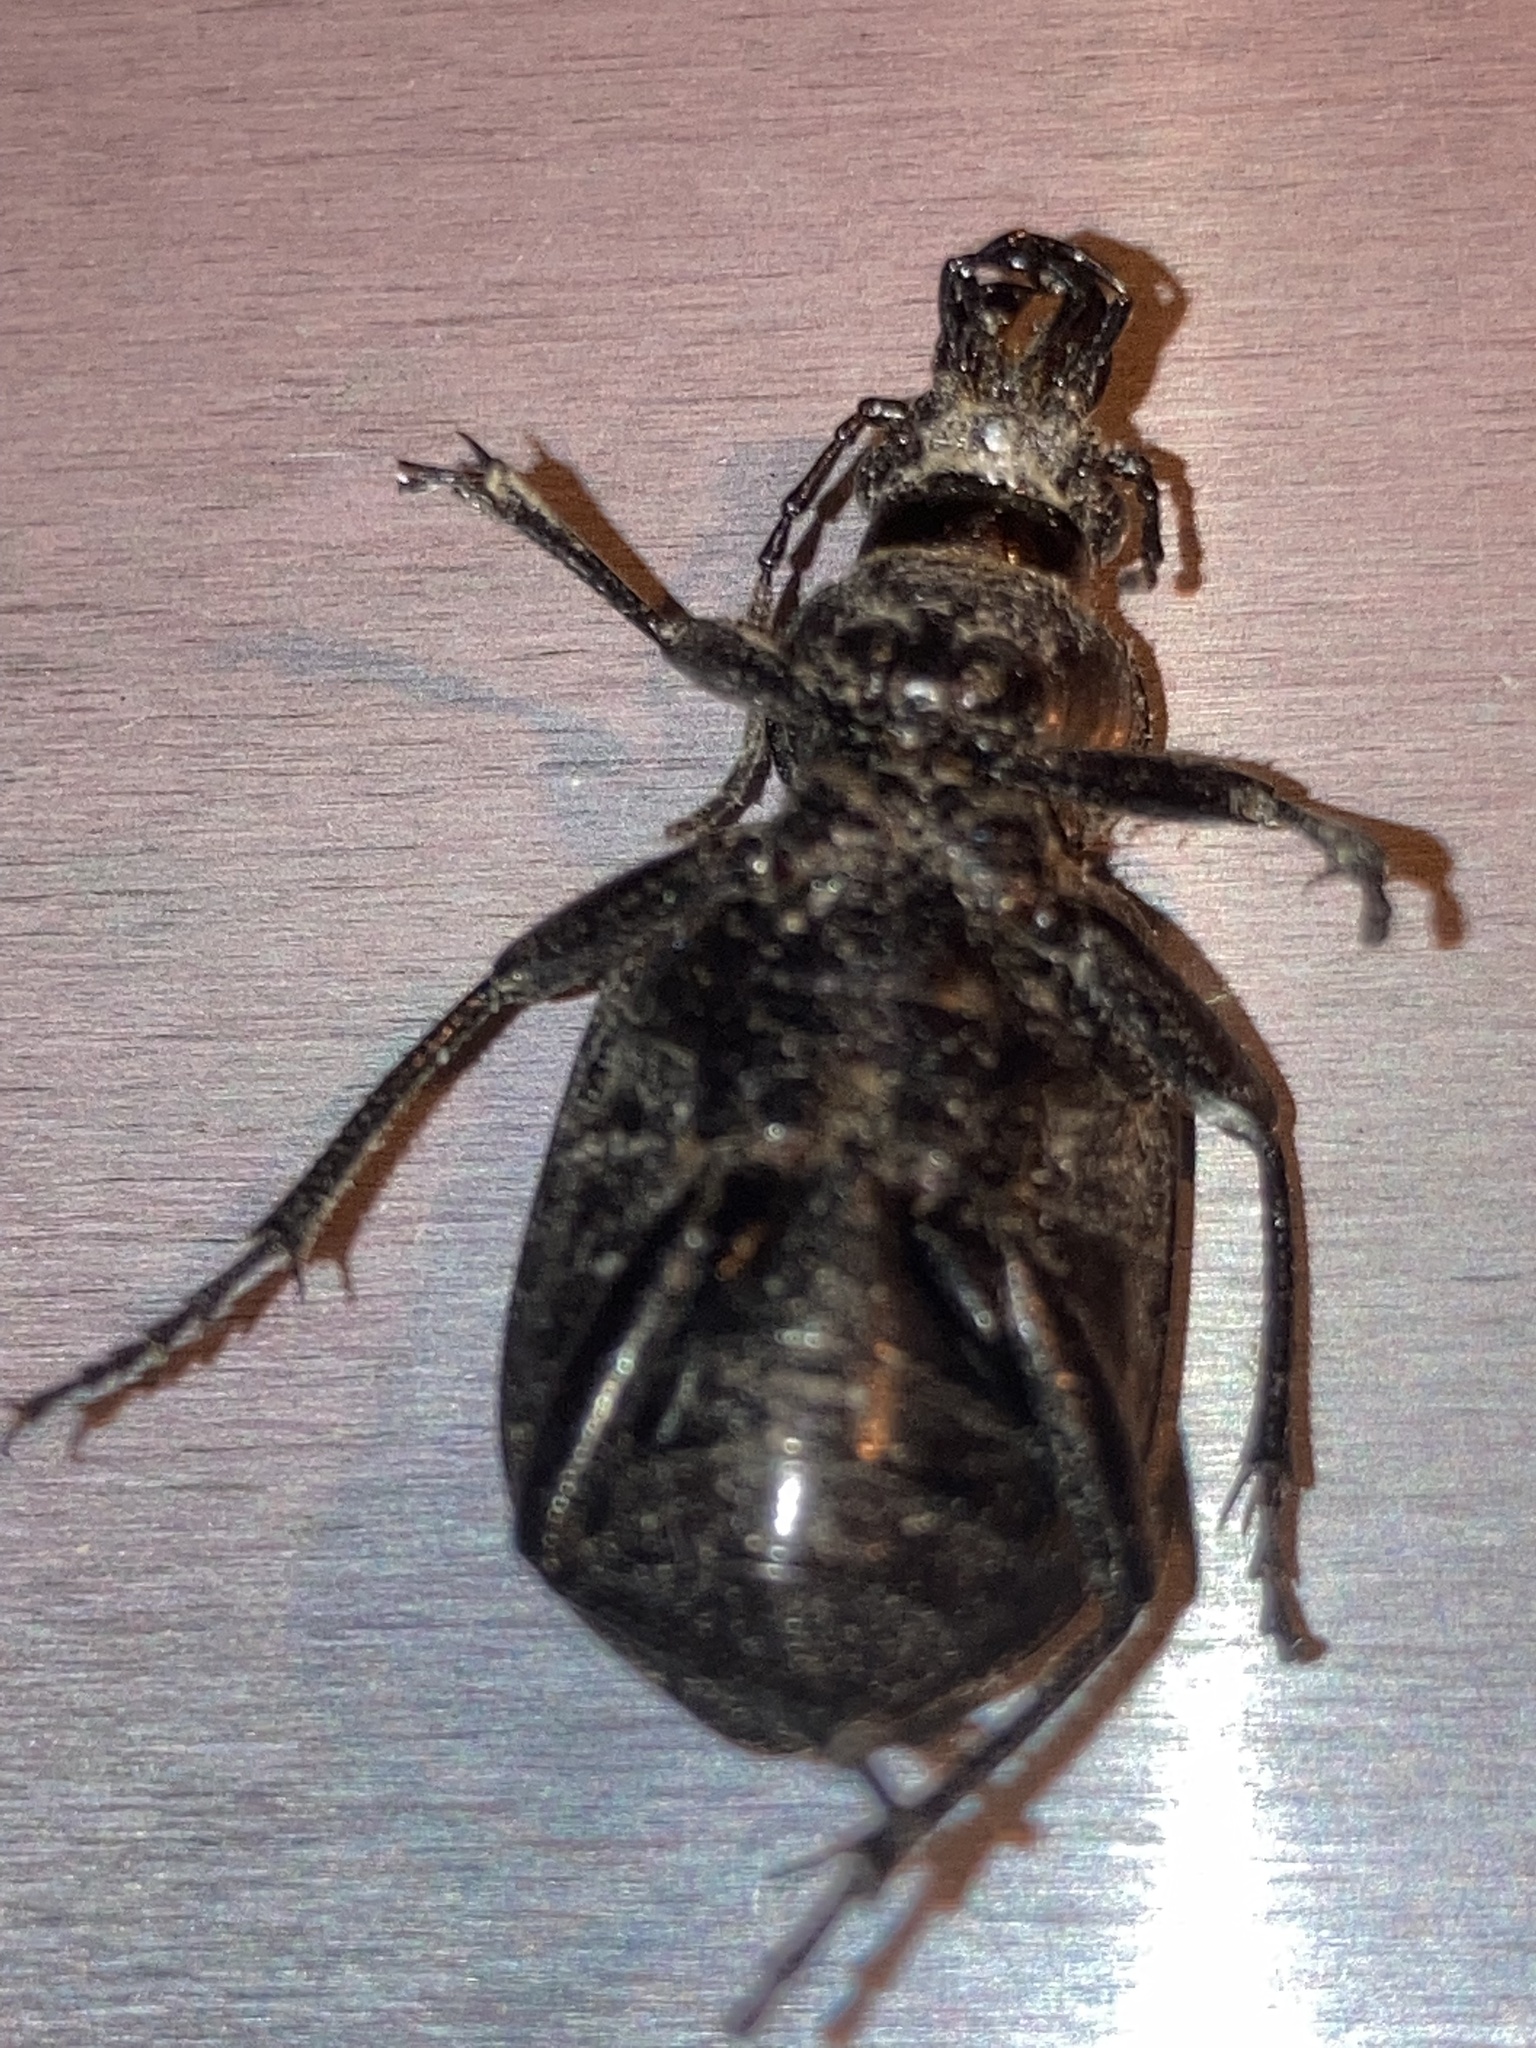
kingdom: Animalia
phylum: Arthropoda
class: Insecta
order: Coleoptera
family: Carabidae
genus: Calosoma
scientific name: Calosoma sayi
